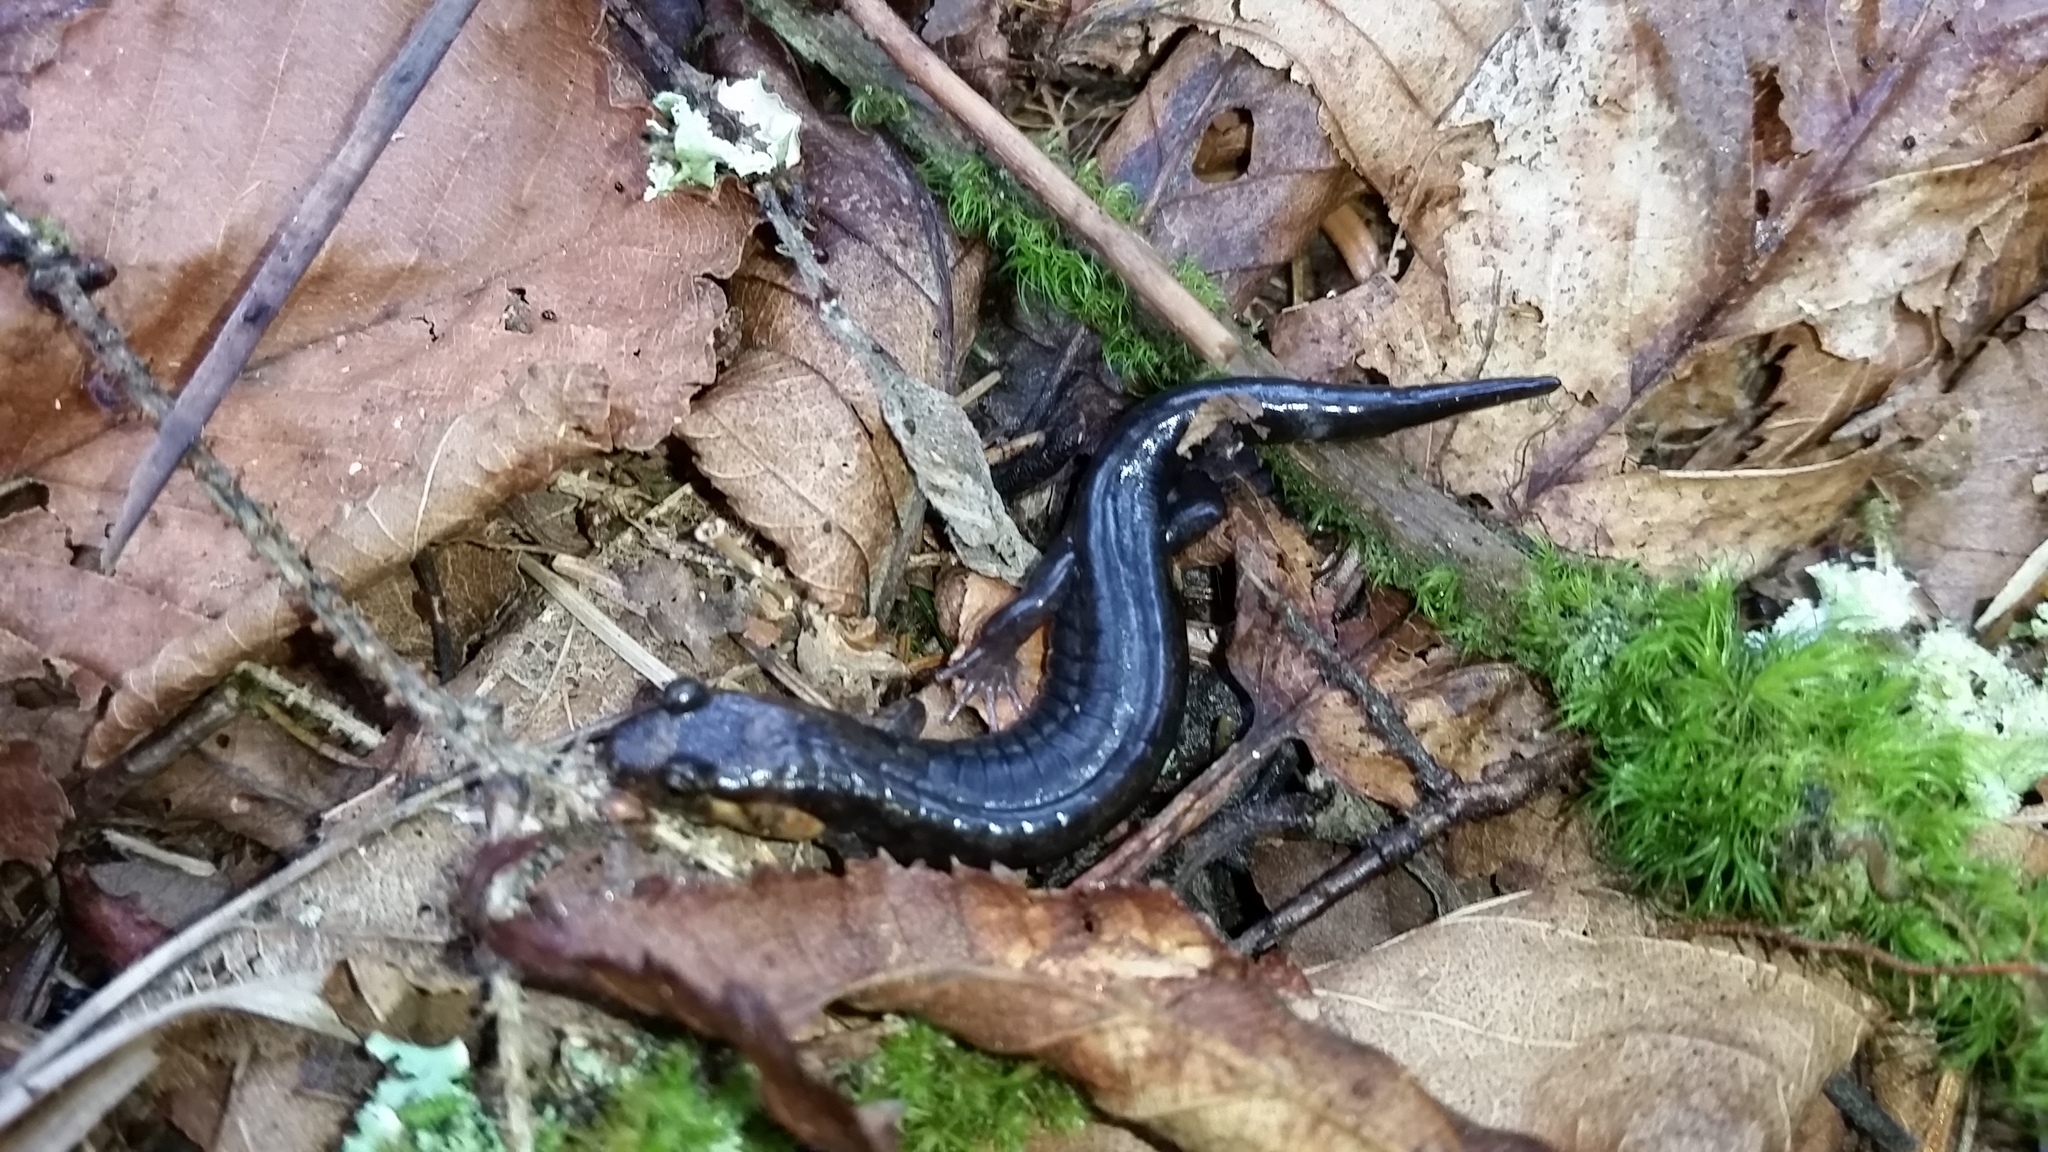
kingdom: Animalia
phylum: Chordata
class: Amphibia
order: Caudata
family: Plethodontidae
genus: Desmognathus
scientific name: Desmognathus imitator
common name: Imitator salamander
